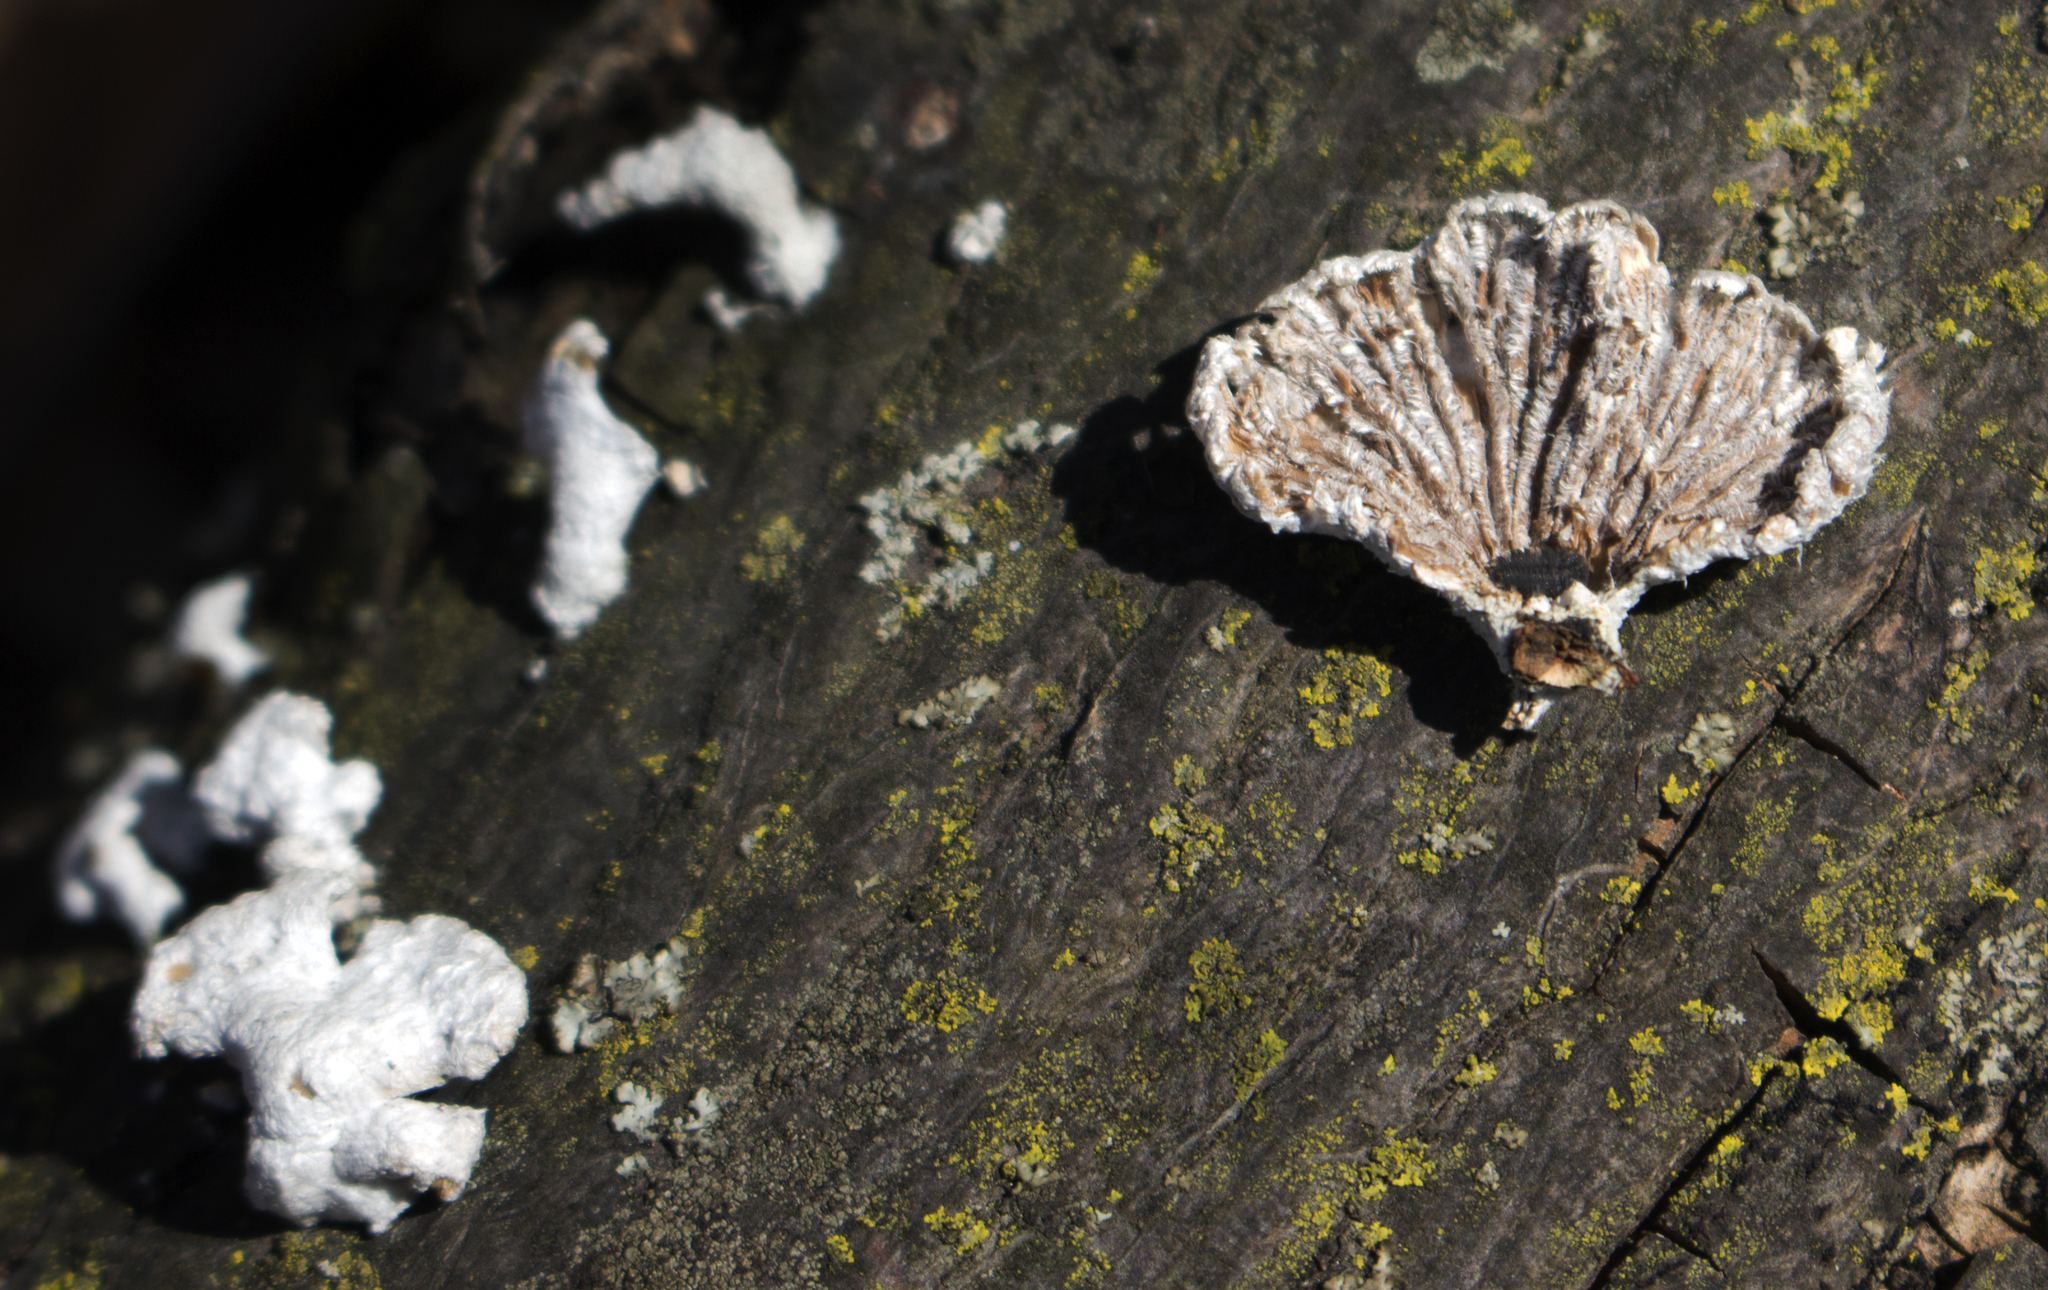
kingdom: Fungi
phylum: Basidiomycota
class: Agaricomycetes
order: Agaricales
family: Schizophyllaceae
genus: Schizophyllum
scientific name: Schizophyllum commune
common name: Common porecrust
